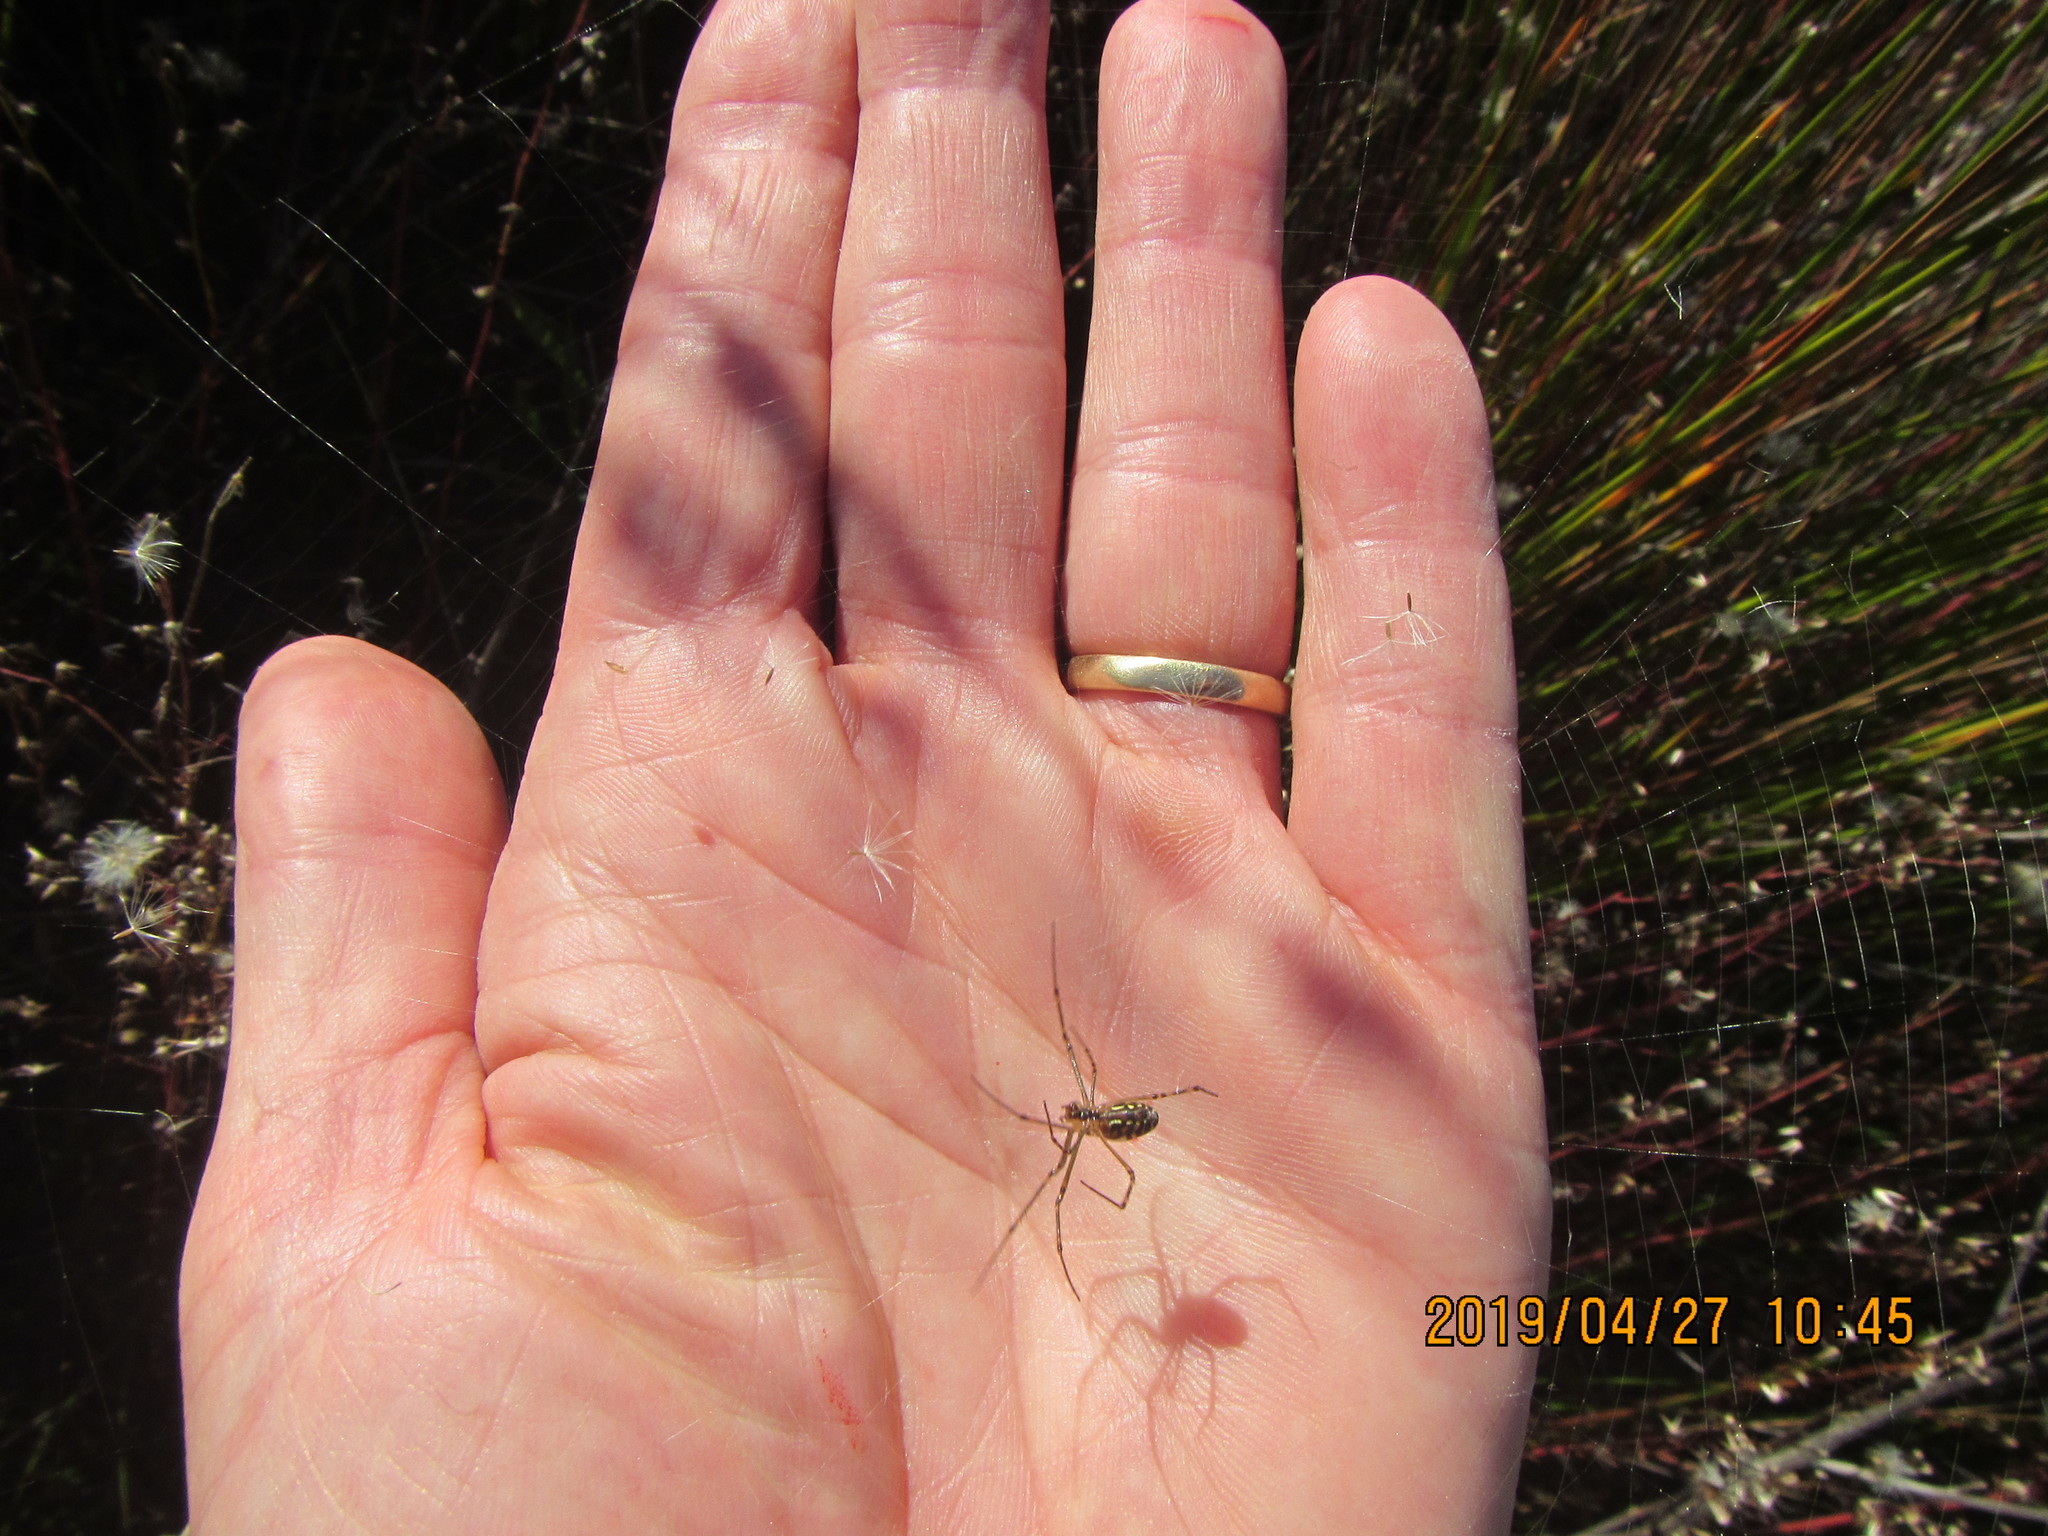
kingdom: Animalia
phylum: Arthropoda
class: Arachnida
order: Araneae
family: Tetragnathidae
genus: Leucauge
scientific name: Leucauge dromedaria
